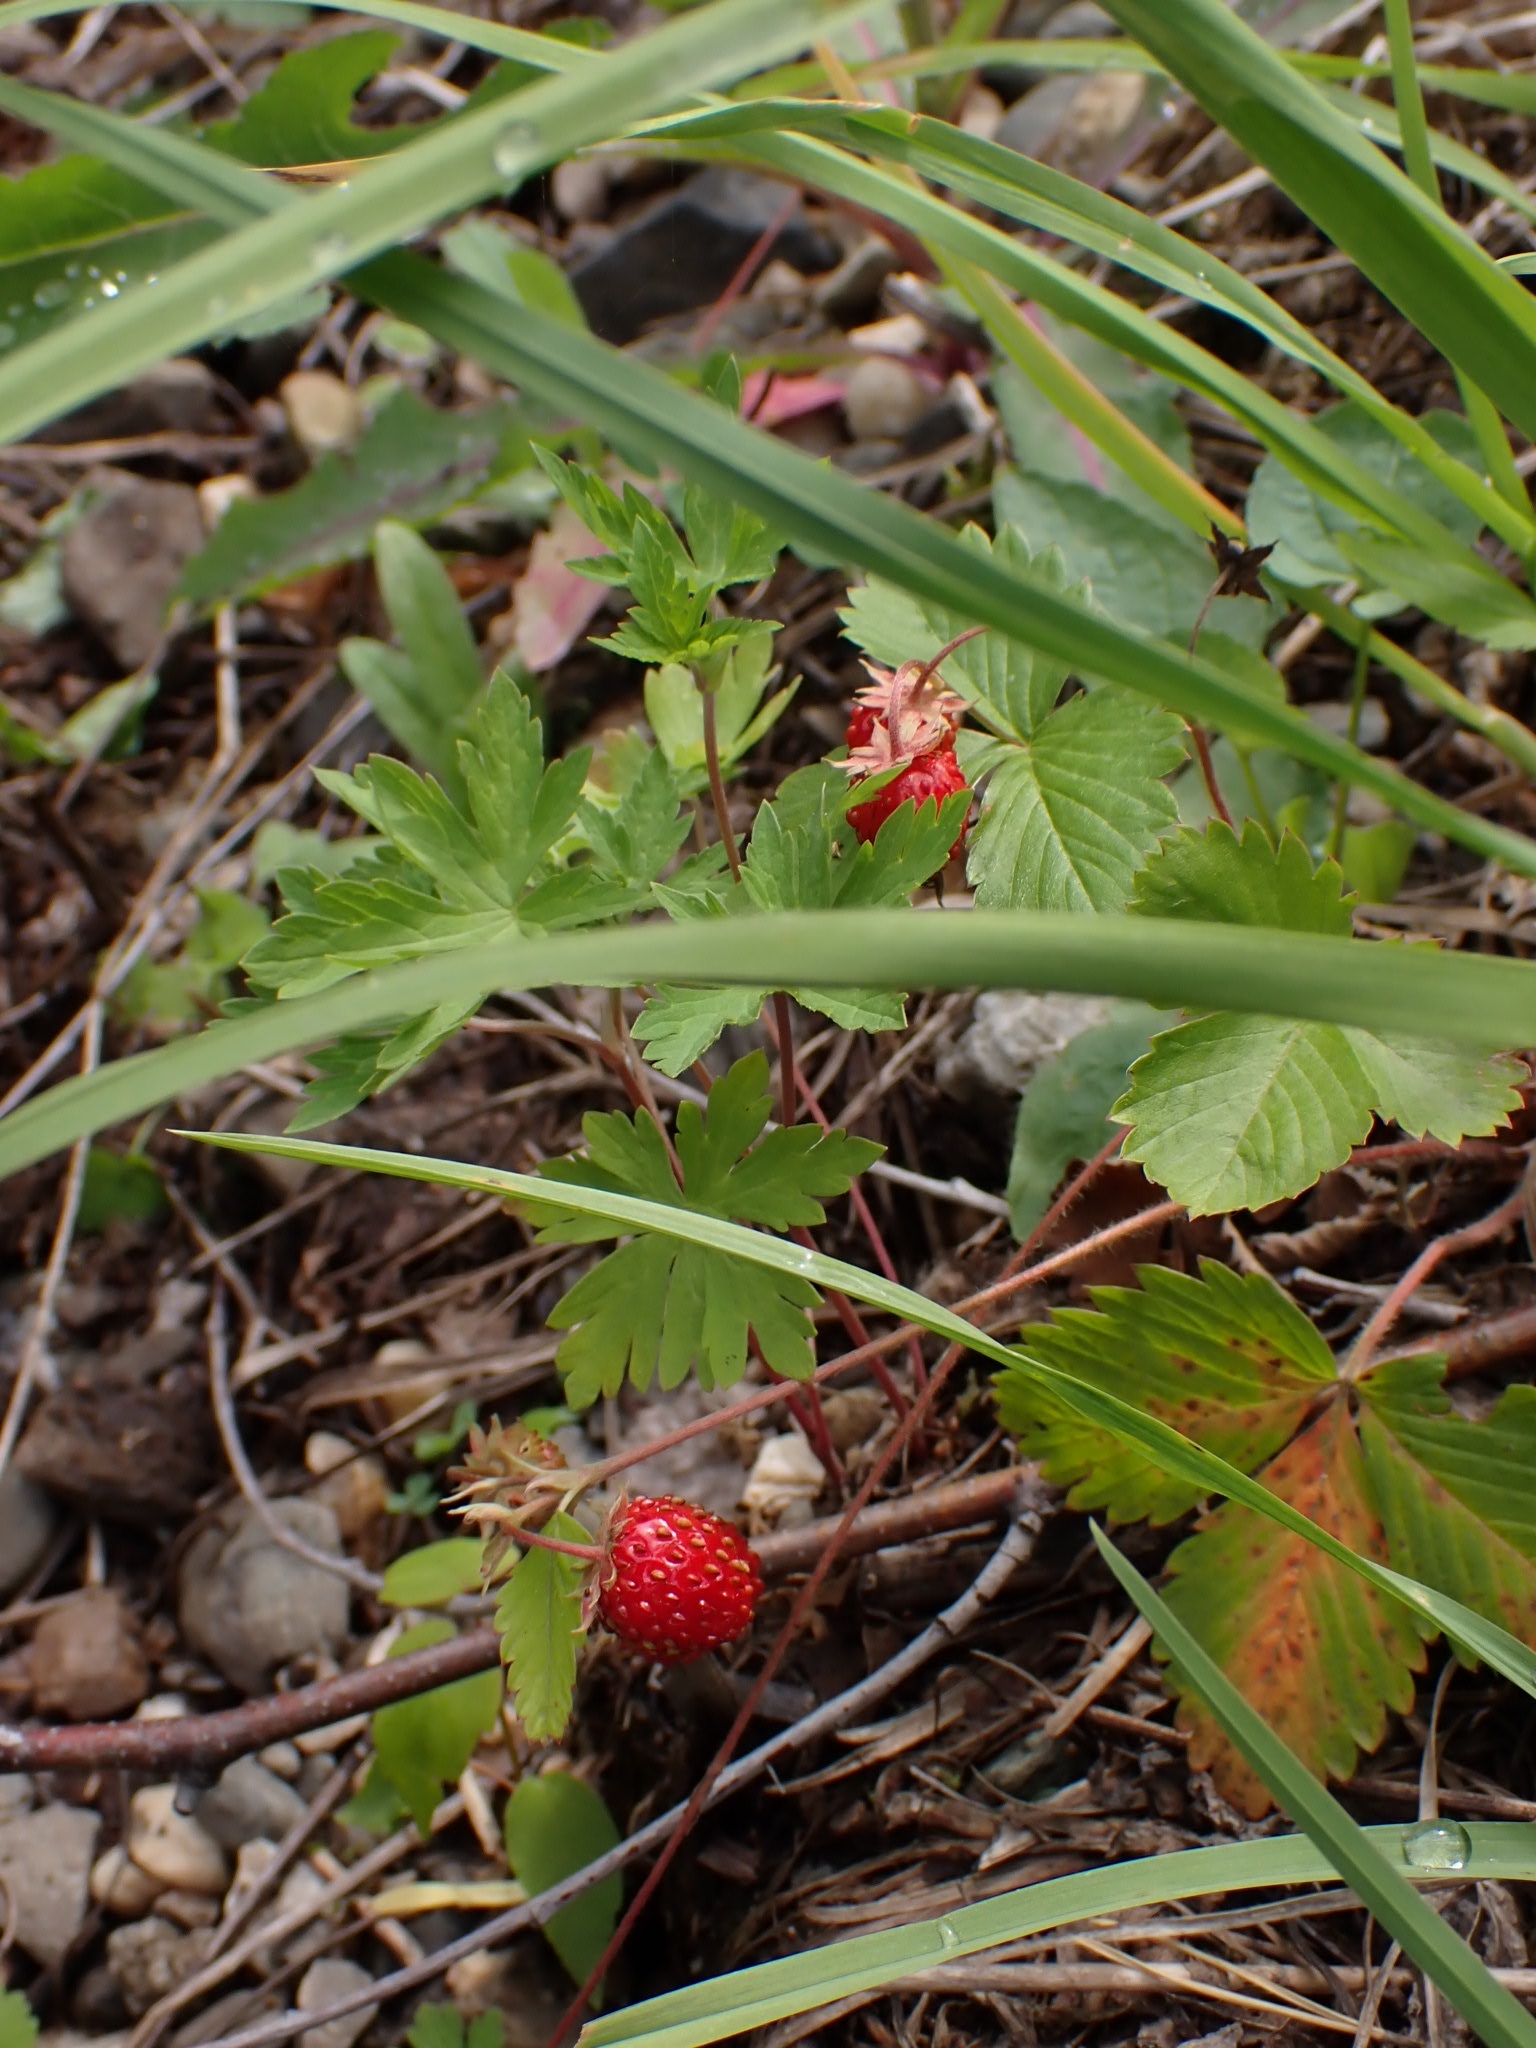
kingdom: Plantae
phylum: Tracheophyta
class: Magnoliopsida
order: Rosales
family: Rosaceae
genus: Fragaria
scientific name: Fragaria vesca
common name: Wild strawberry
